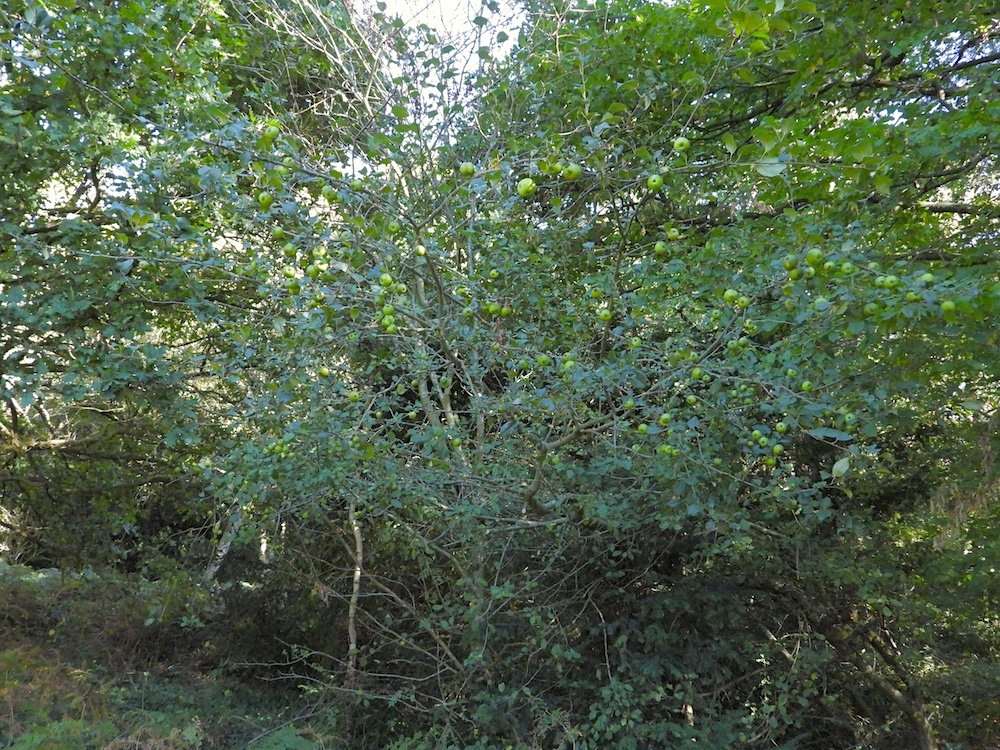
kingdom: Plantae
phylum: Tracheophyta
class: Magnoliopsida
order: Rosales
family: Rosaceae
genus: Malus
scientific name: Malus sylvestris
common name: Crab apple
